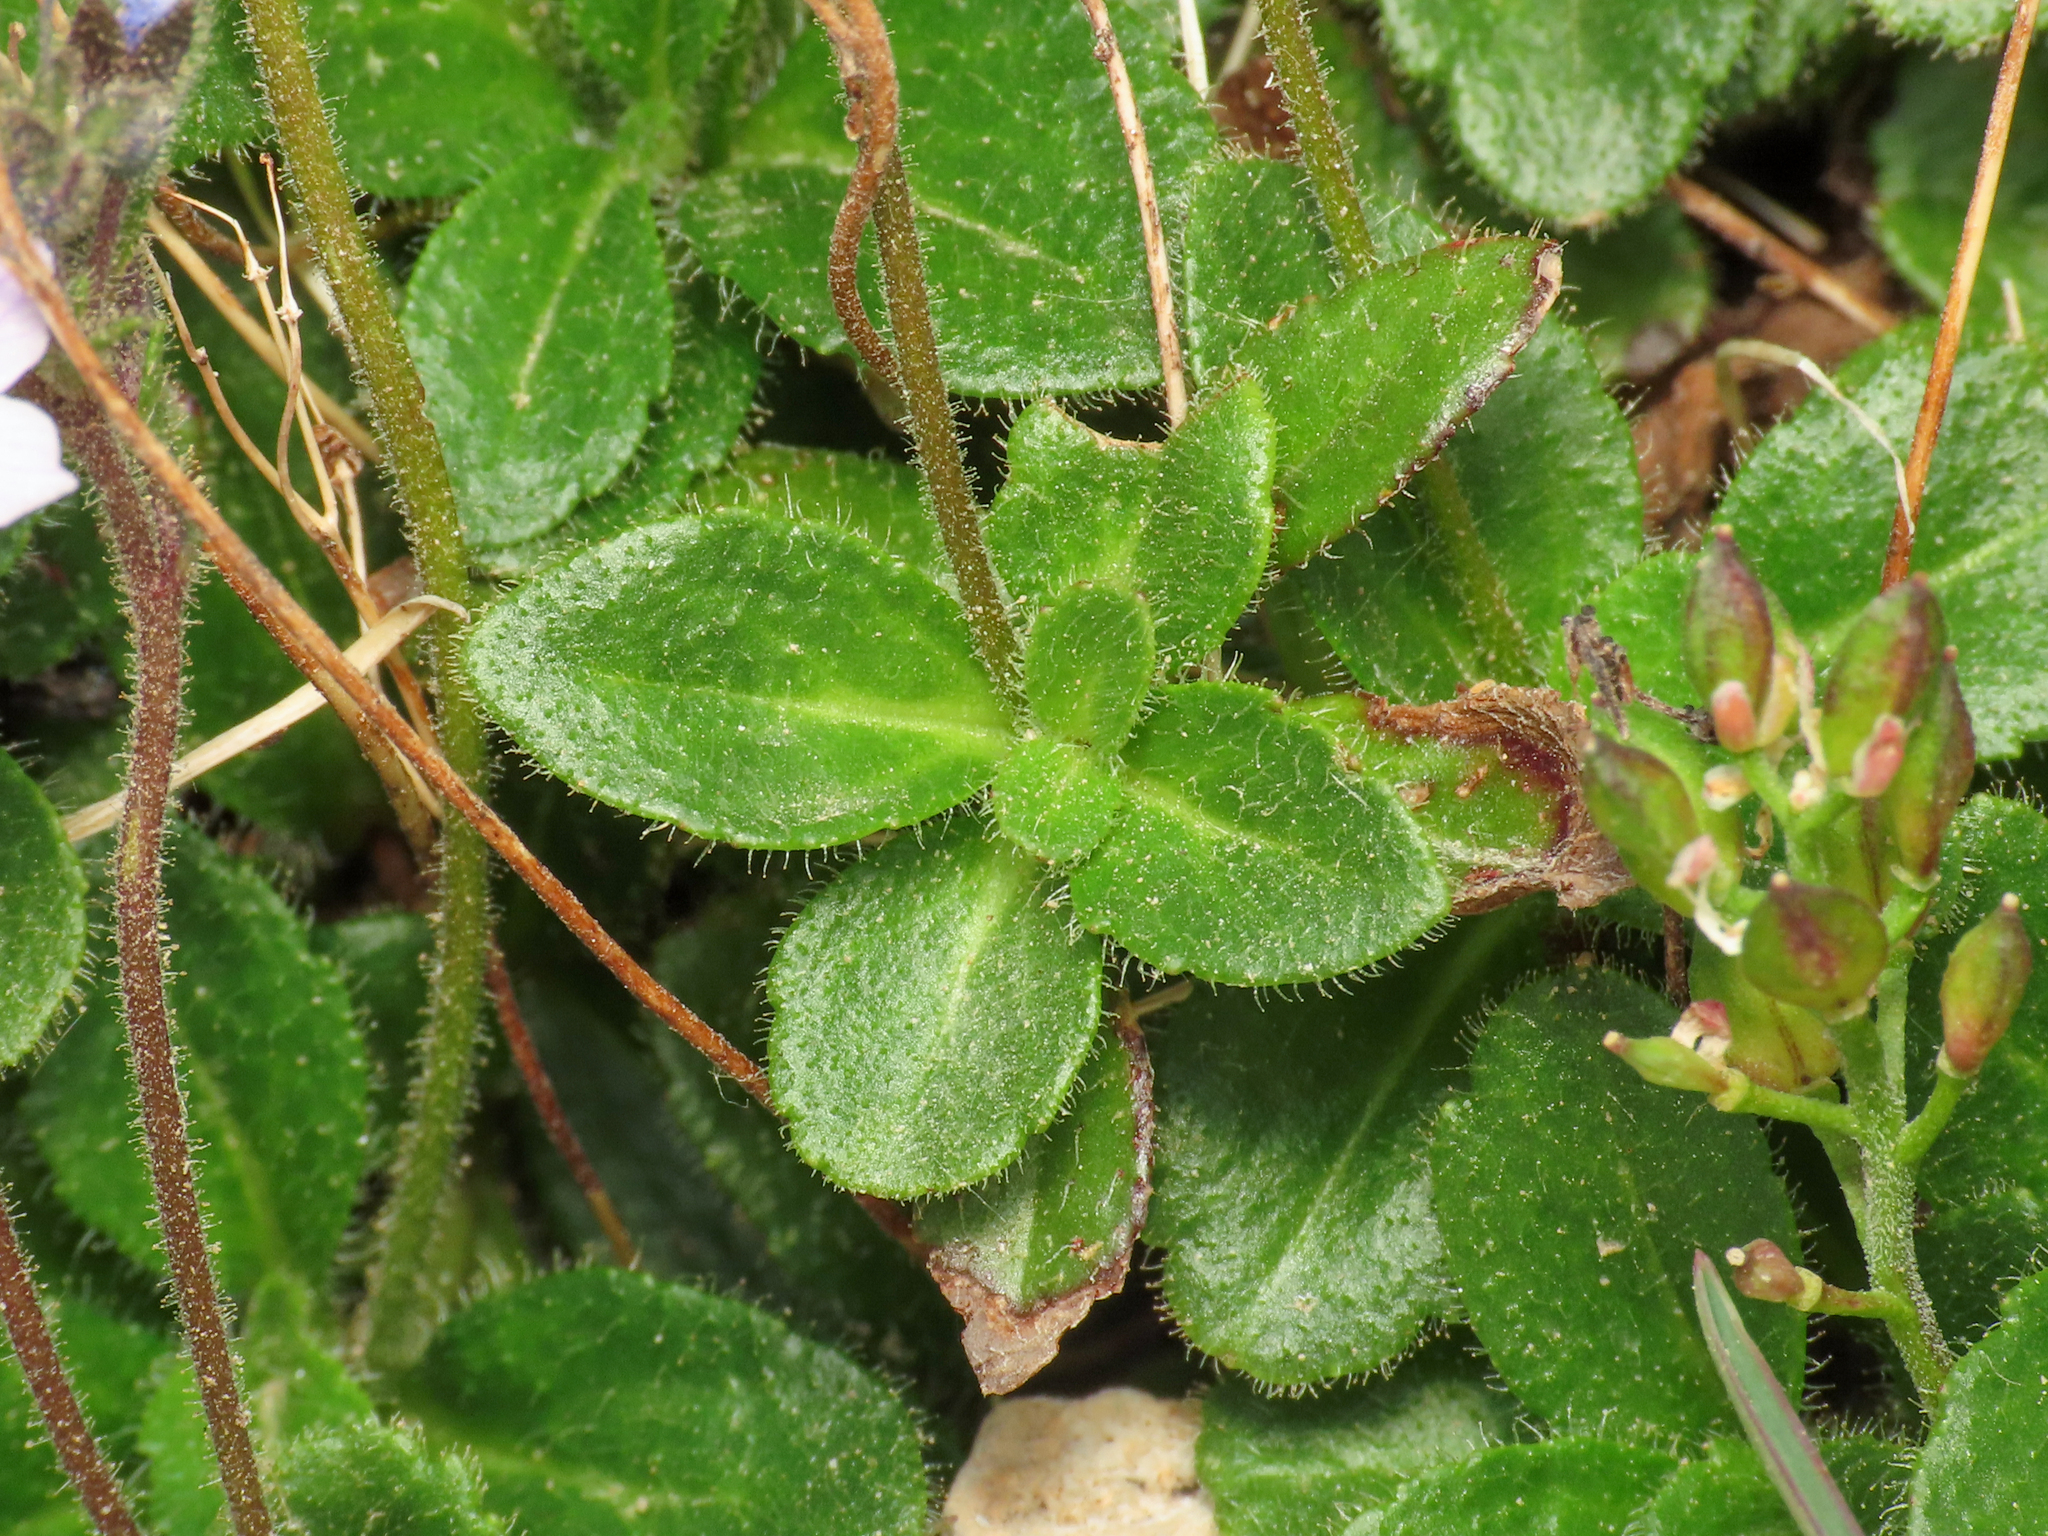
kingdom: Plantae
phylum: Tracheophyta
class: Magnoliopsida
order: Lamiales
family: Plantaginaceae
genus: Veronica
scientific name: Veronica aphylla
